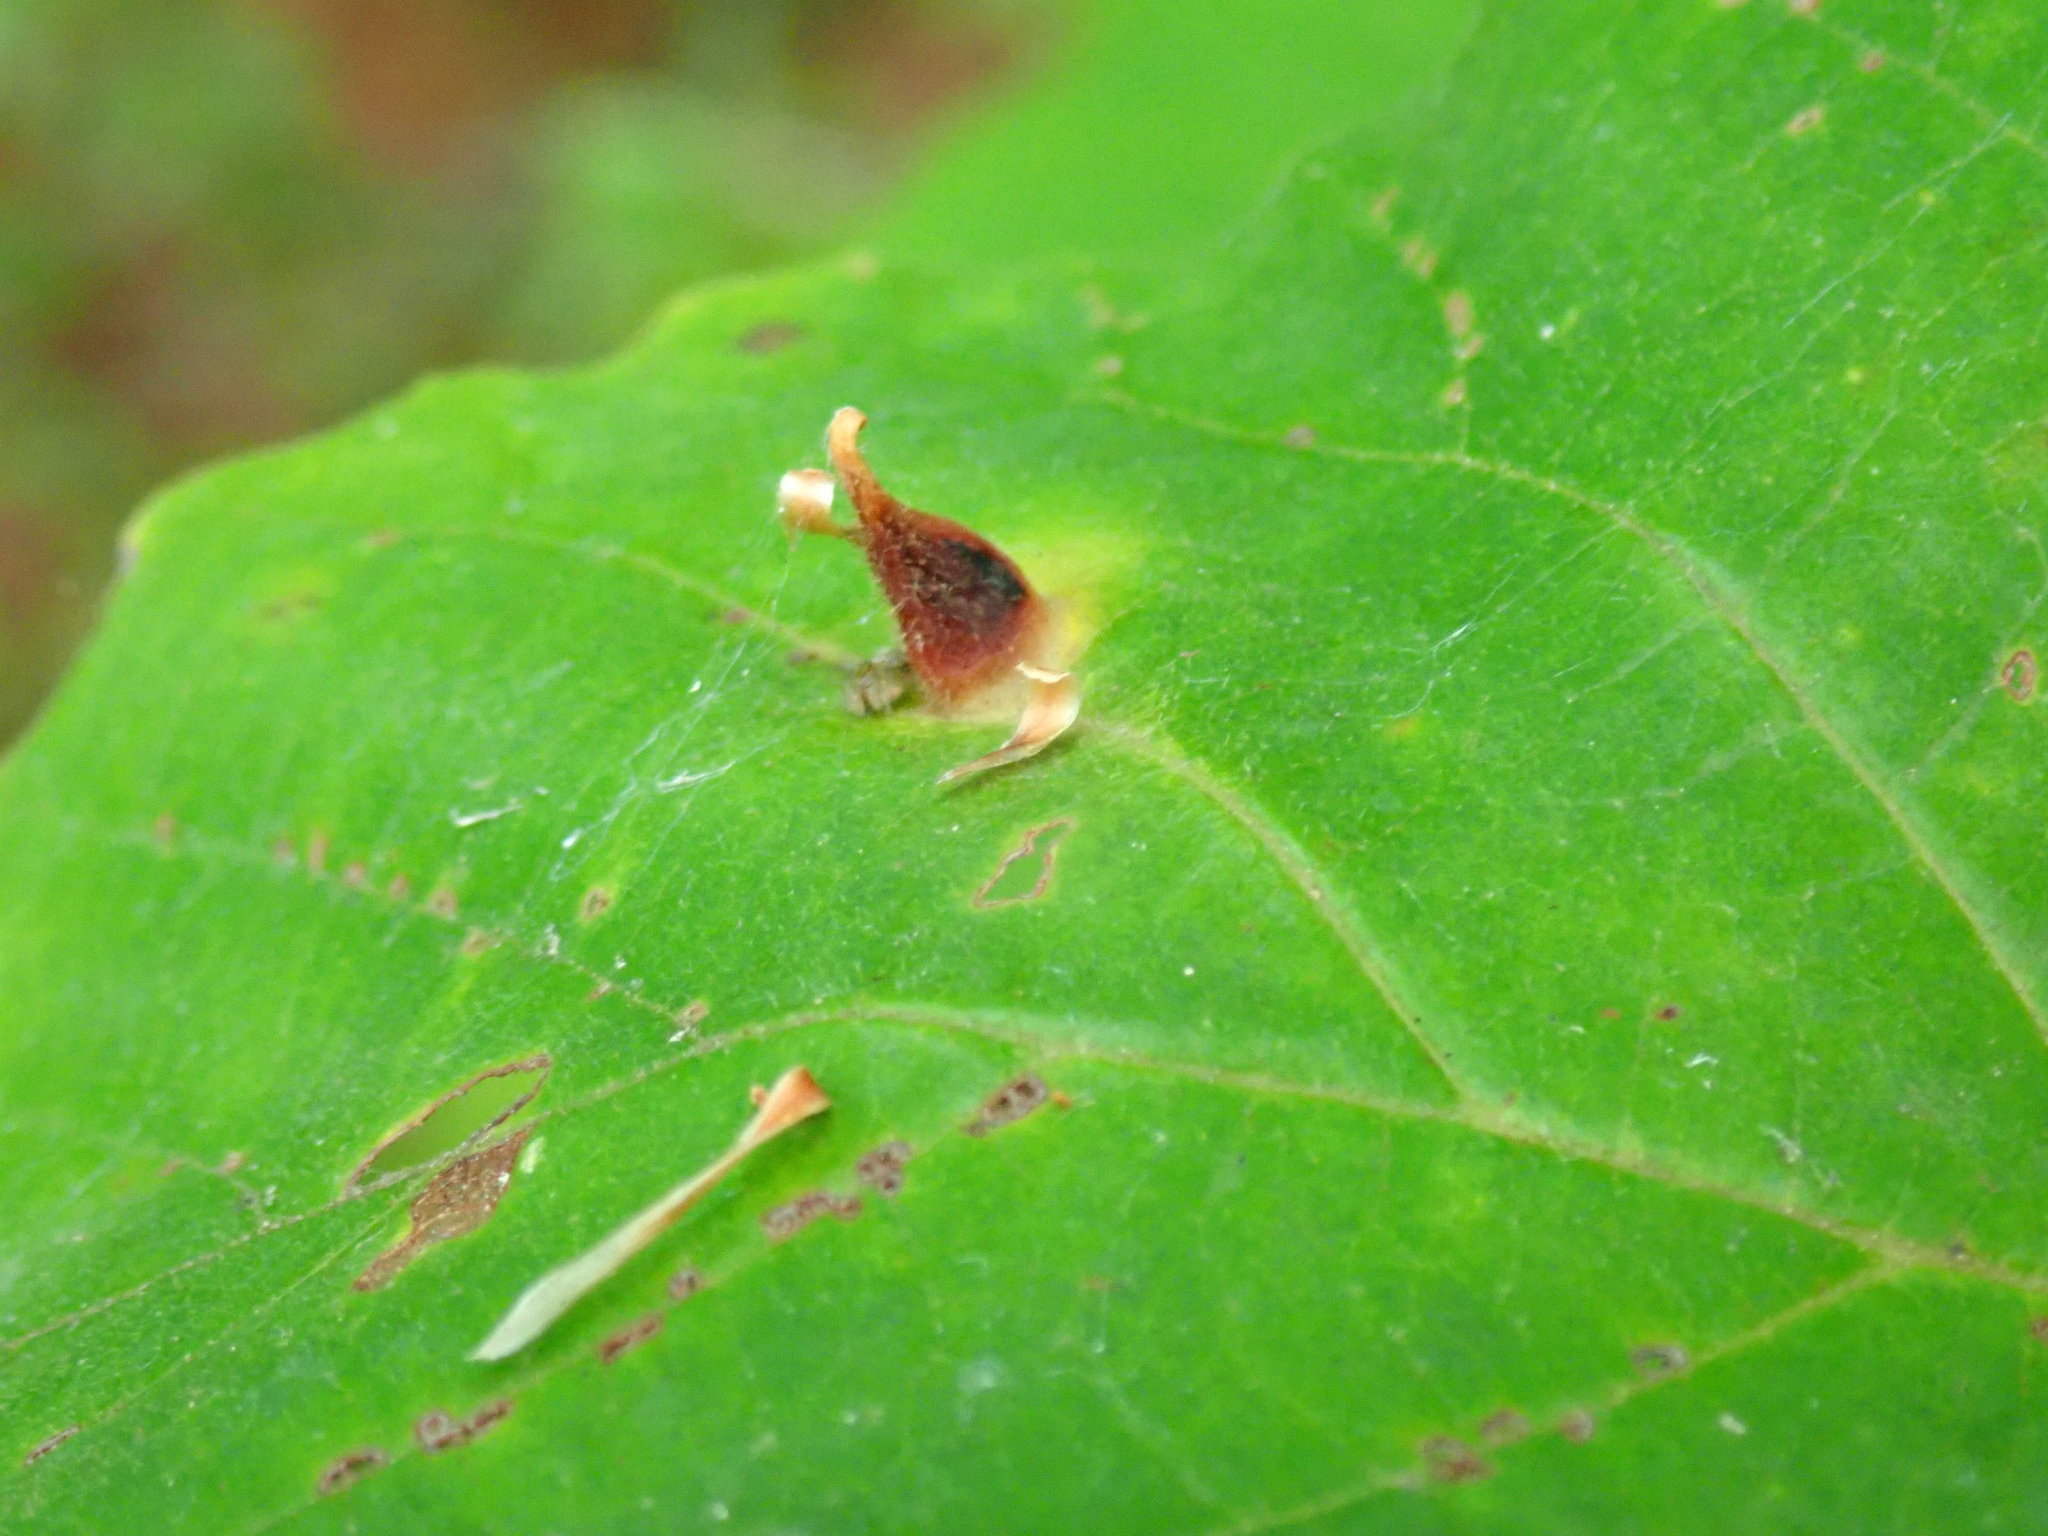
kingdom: Animalia
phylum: Arthropoda
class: Insecta
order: Hemiptera
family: Aphididae
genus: Hormaphis
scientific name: Hormaphis hamamelidis
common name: Witch-hazel cone gall aphid
